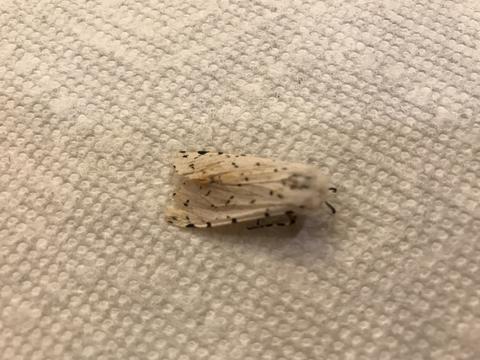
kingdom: Animalia
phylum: Arthropoda
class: Insecta
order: Lepidoptera
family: Erebidae
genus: Estigmene
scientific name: Estigmene acrea
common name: Salt marsh moth
